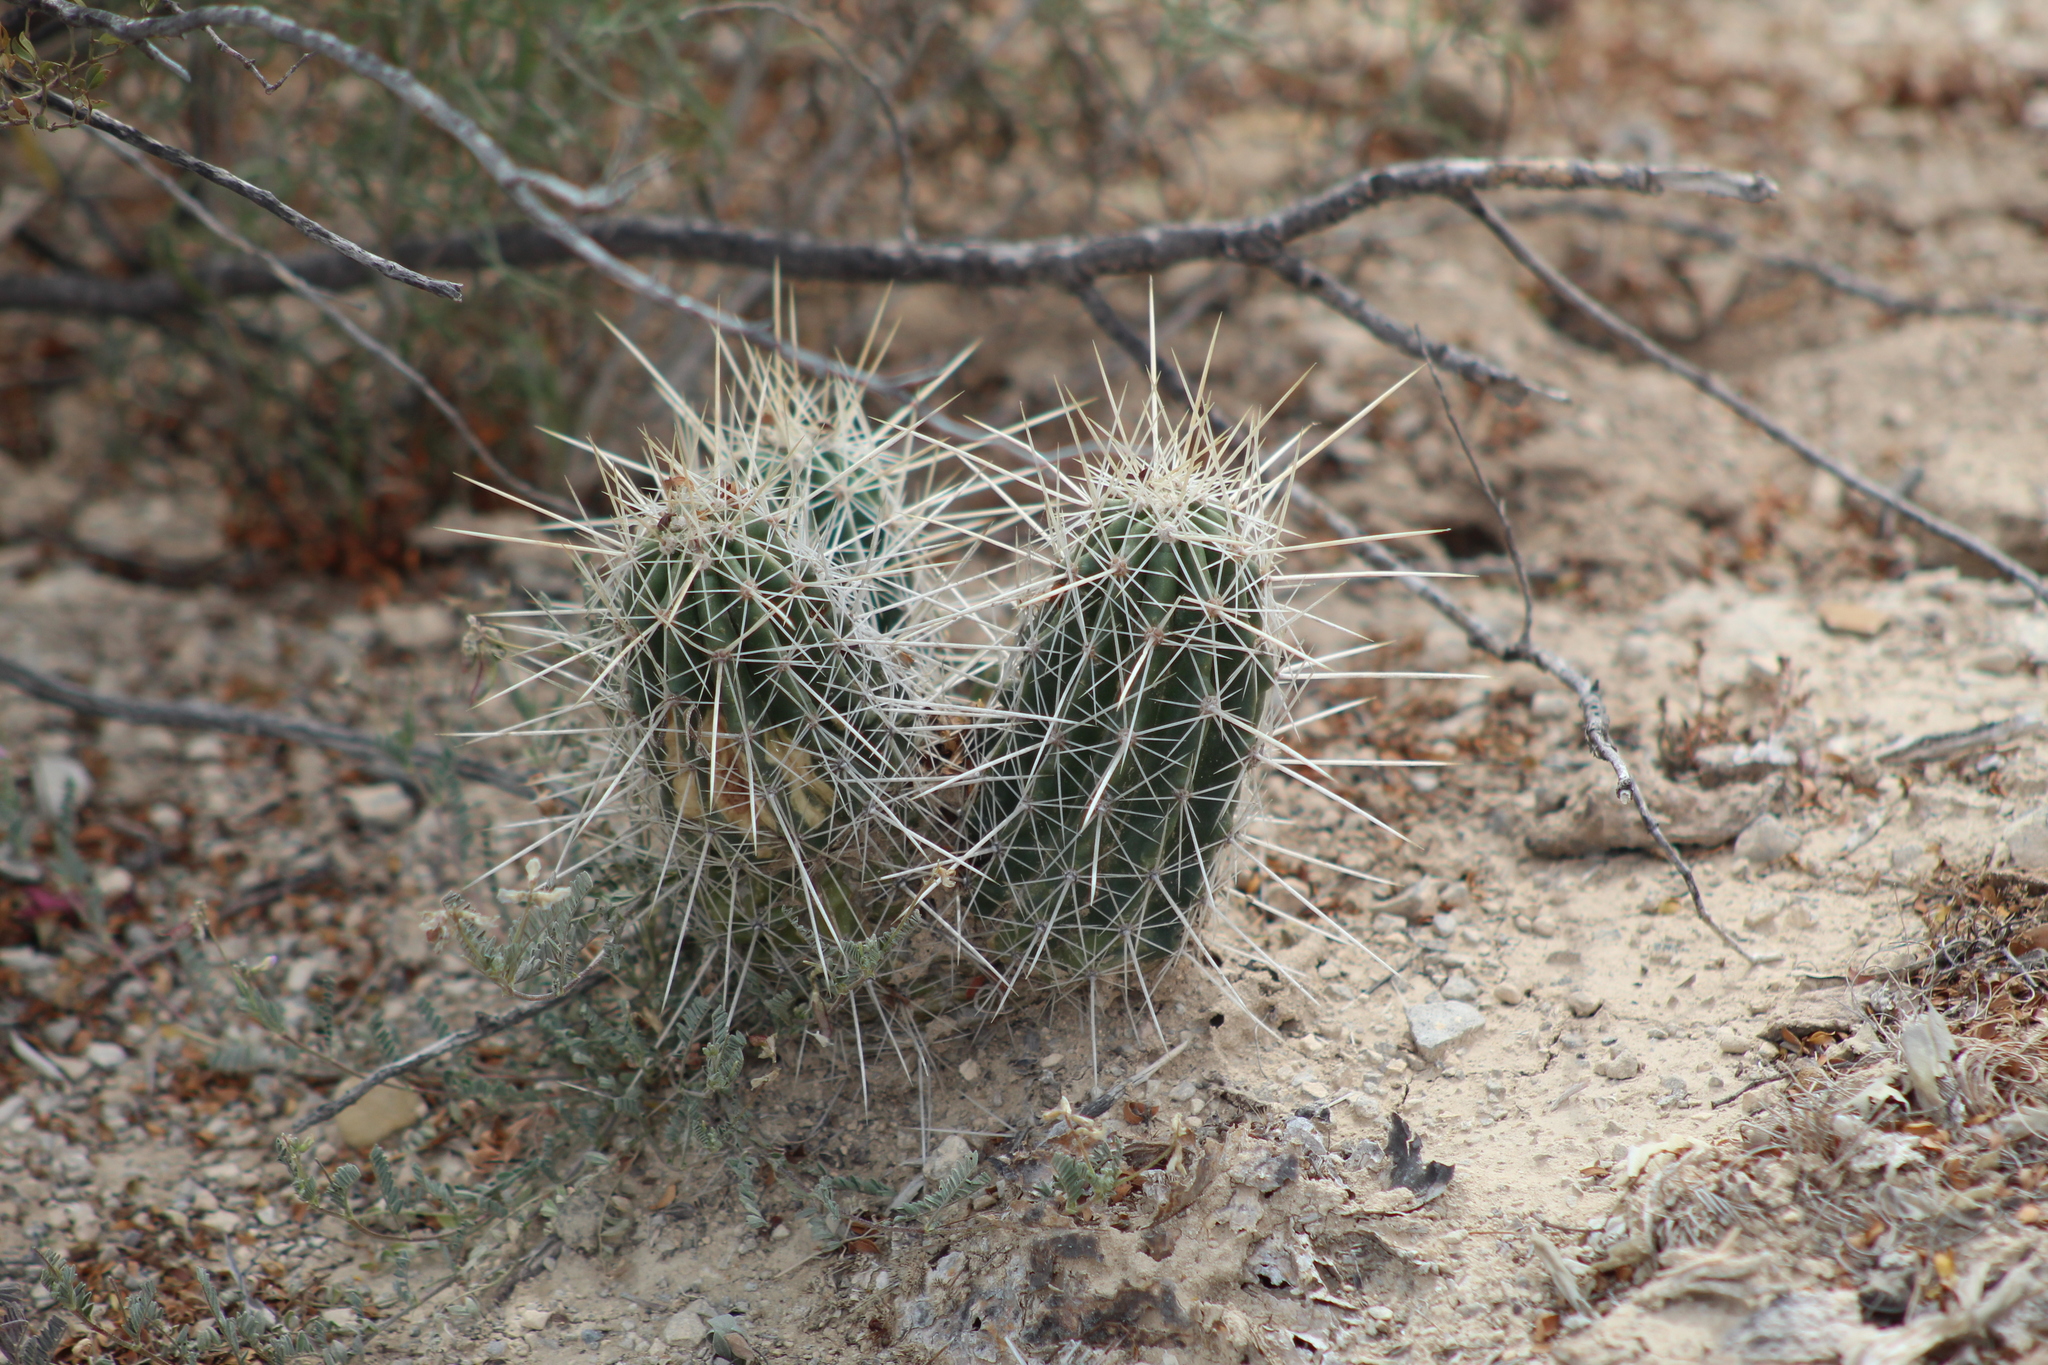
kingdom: Plantae
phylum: Tracheophyta
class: Magnoliopsida
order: Caryophyllales
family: Cactaceae
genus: Echinocereus
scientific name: Echinocereus stramineus
